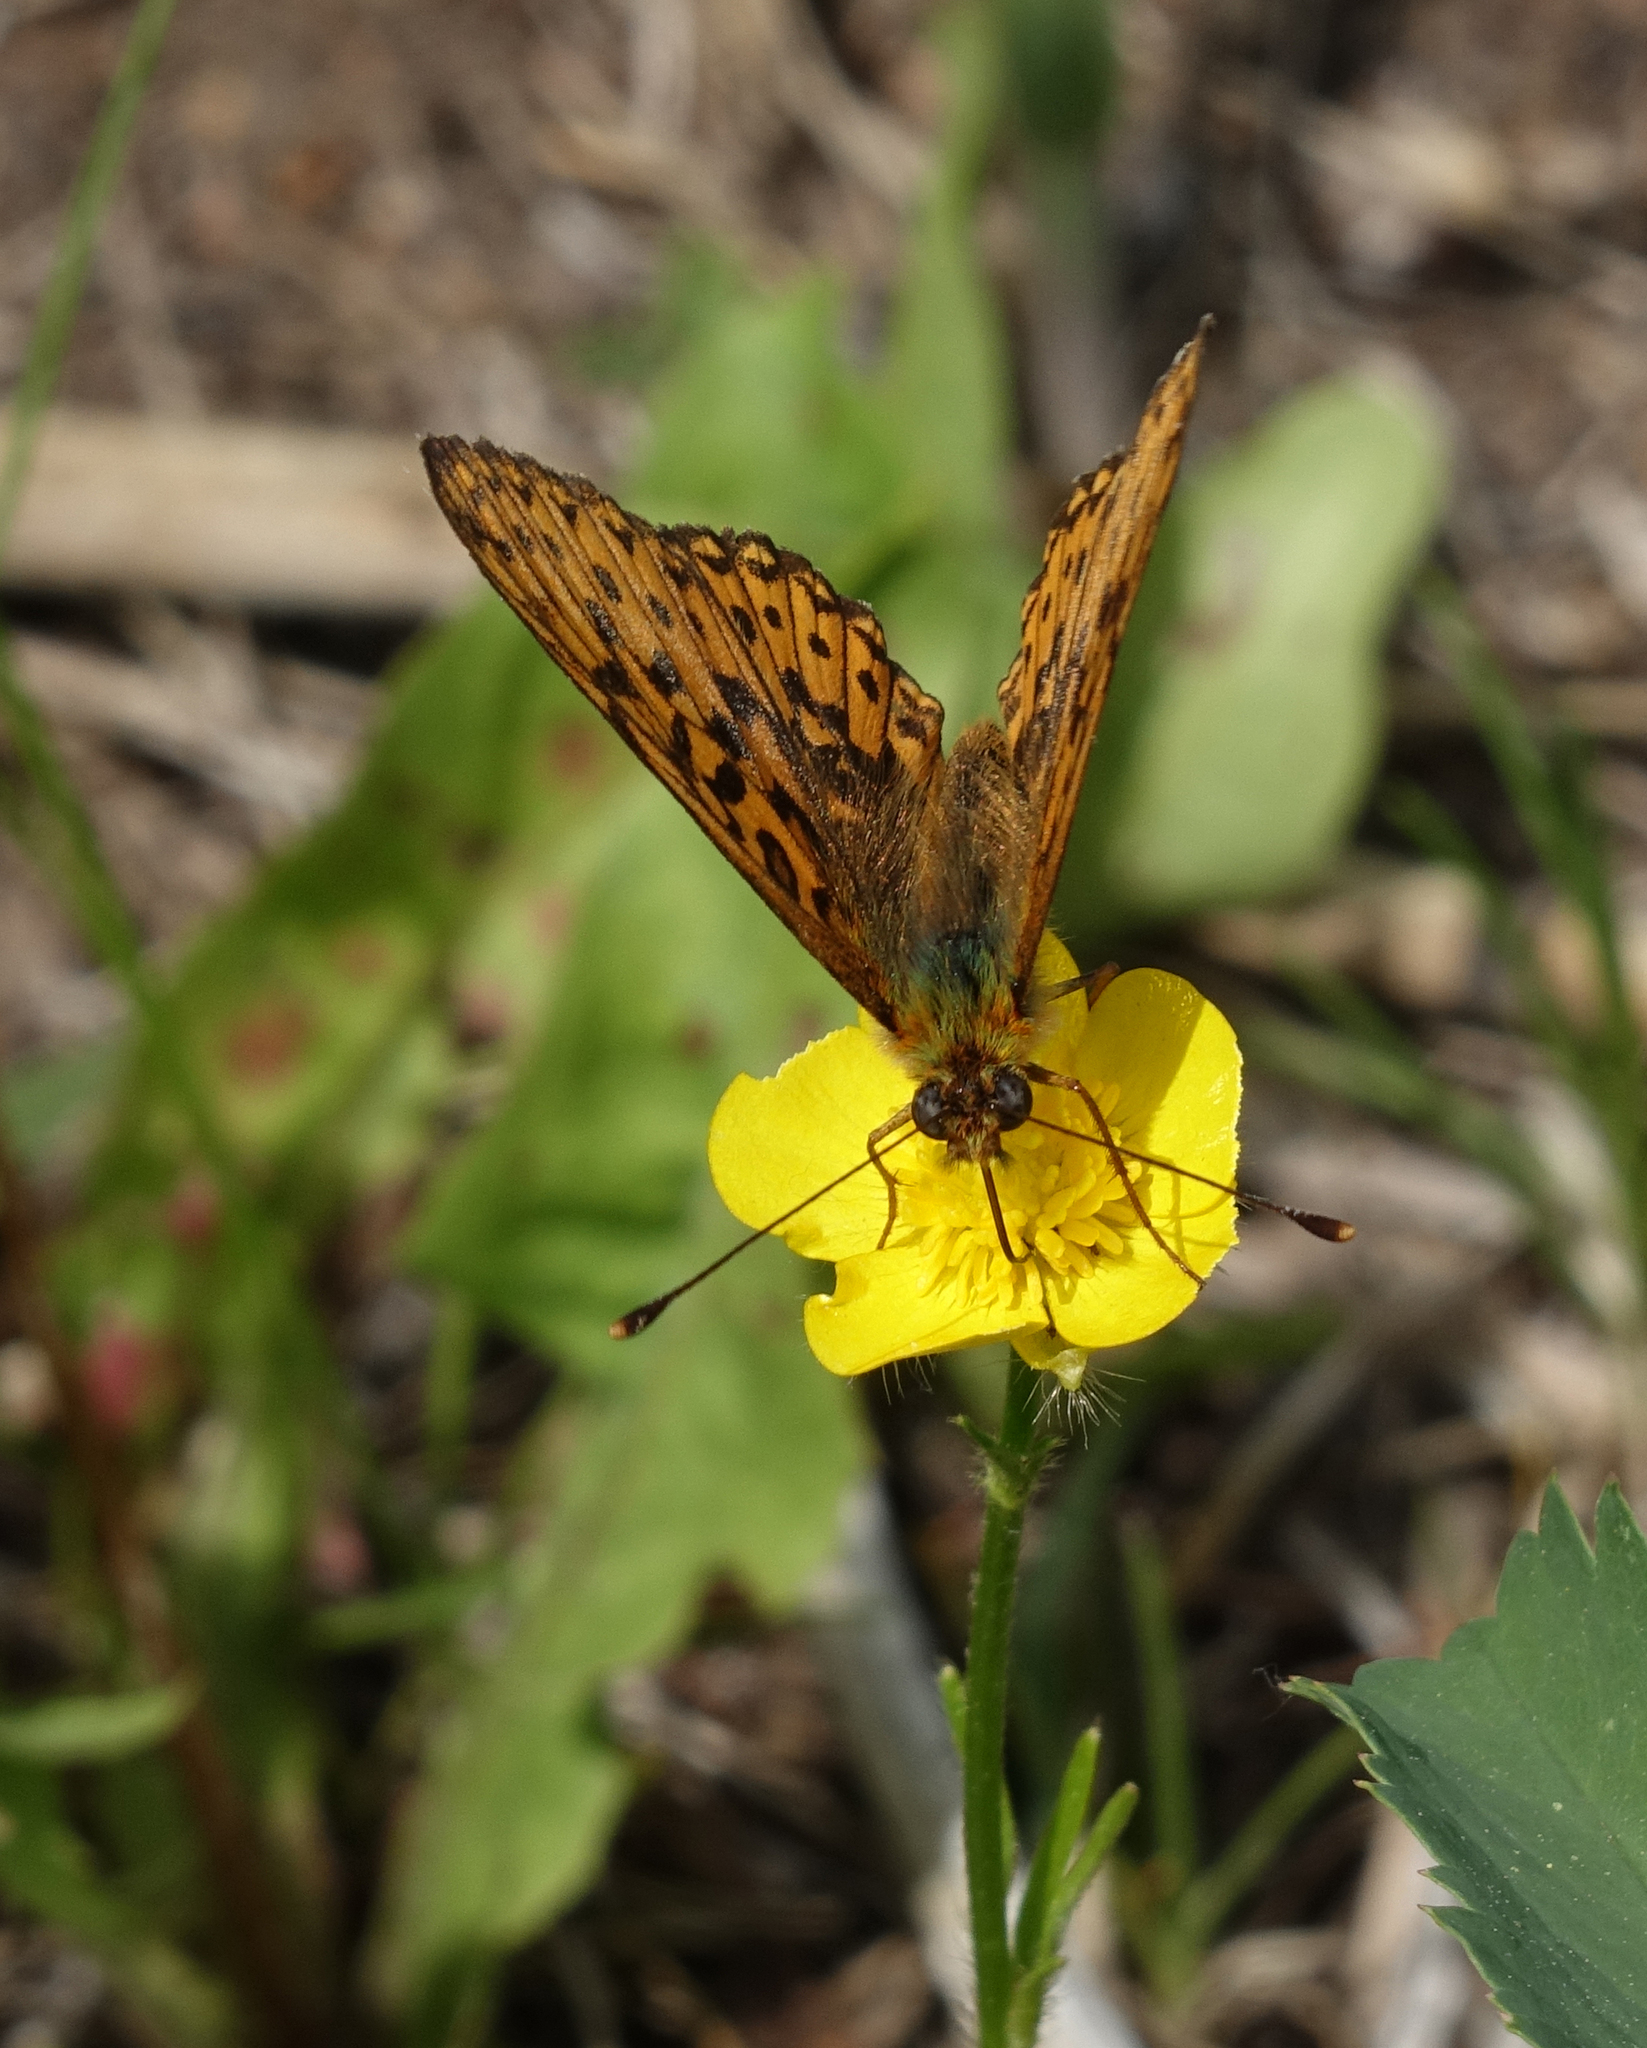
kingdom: Animalia
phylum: Arthropoda
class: Insecta
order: Lepidoptera
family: Nymphalidae
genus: Clossiana
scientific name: Clossiana euphrosyne
